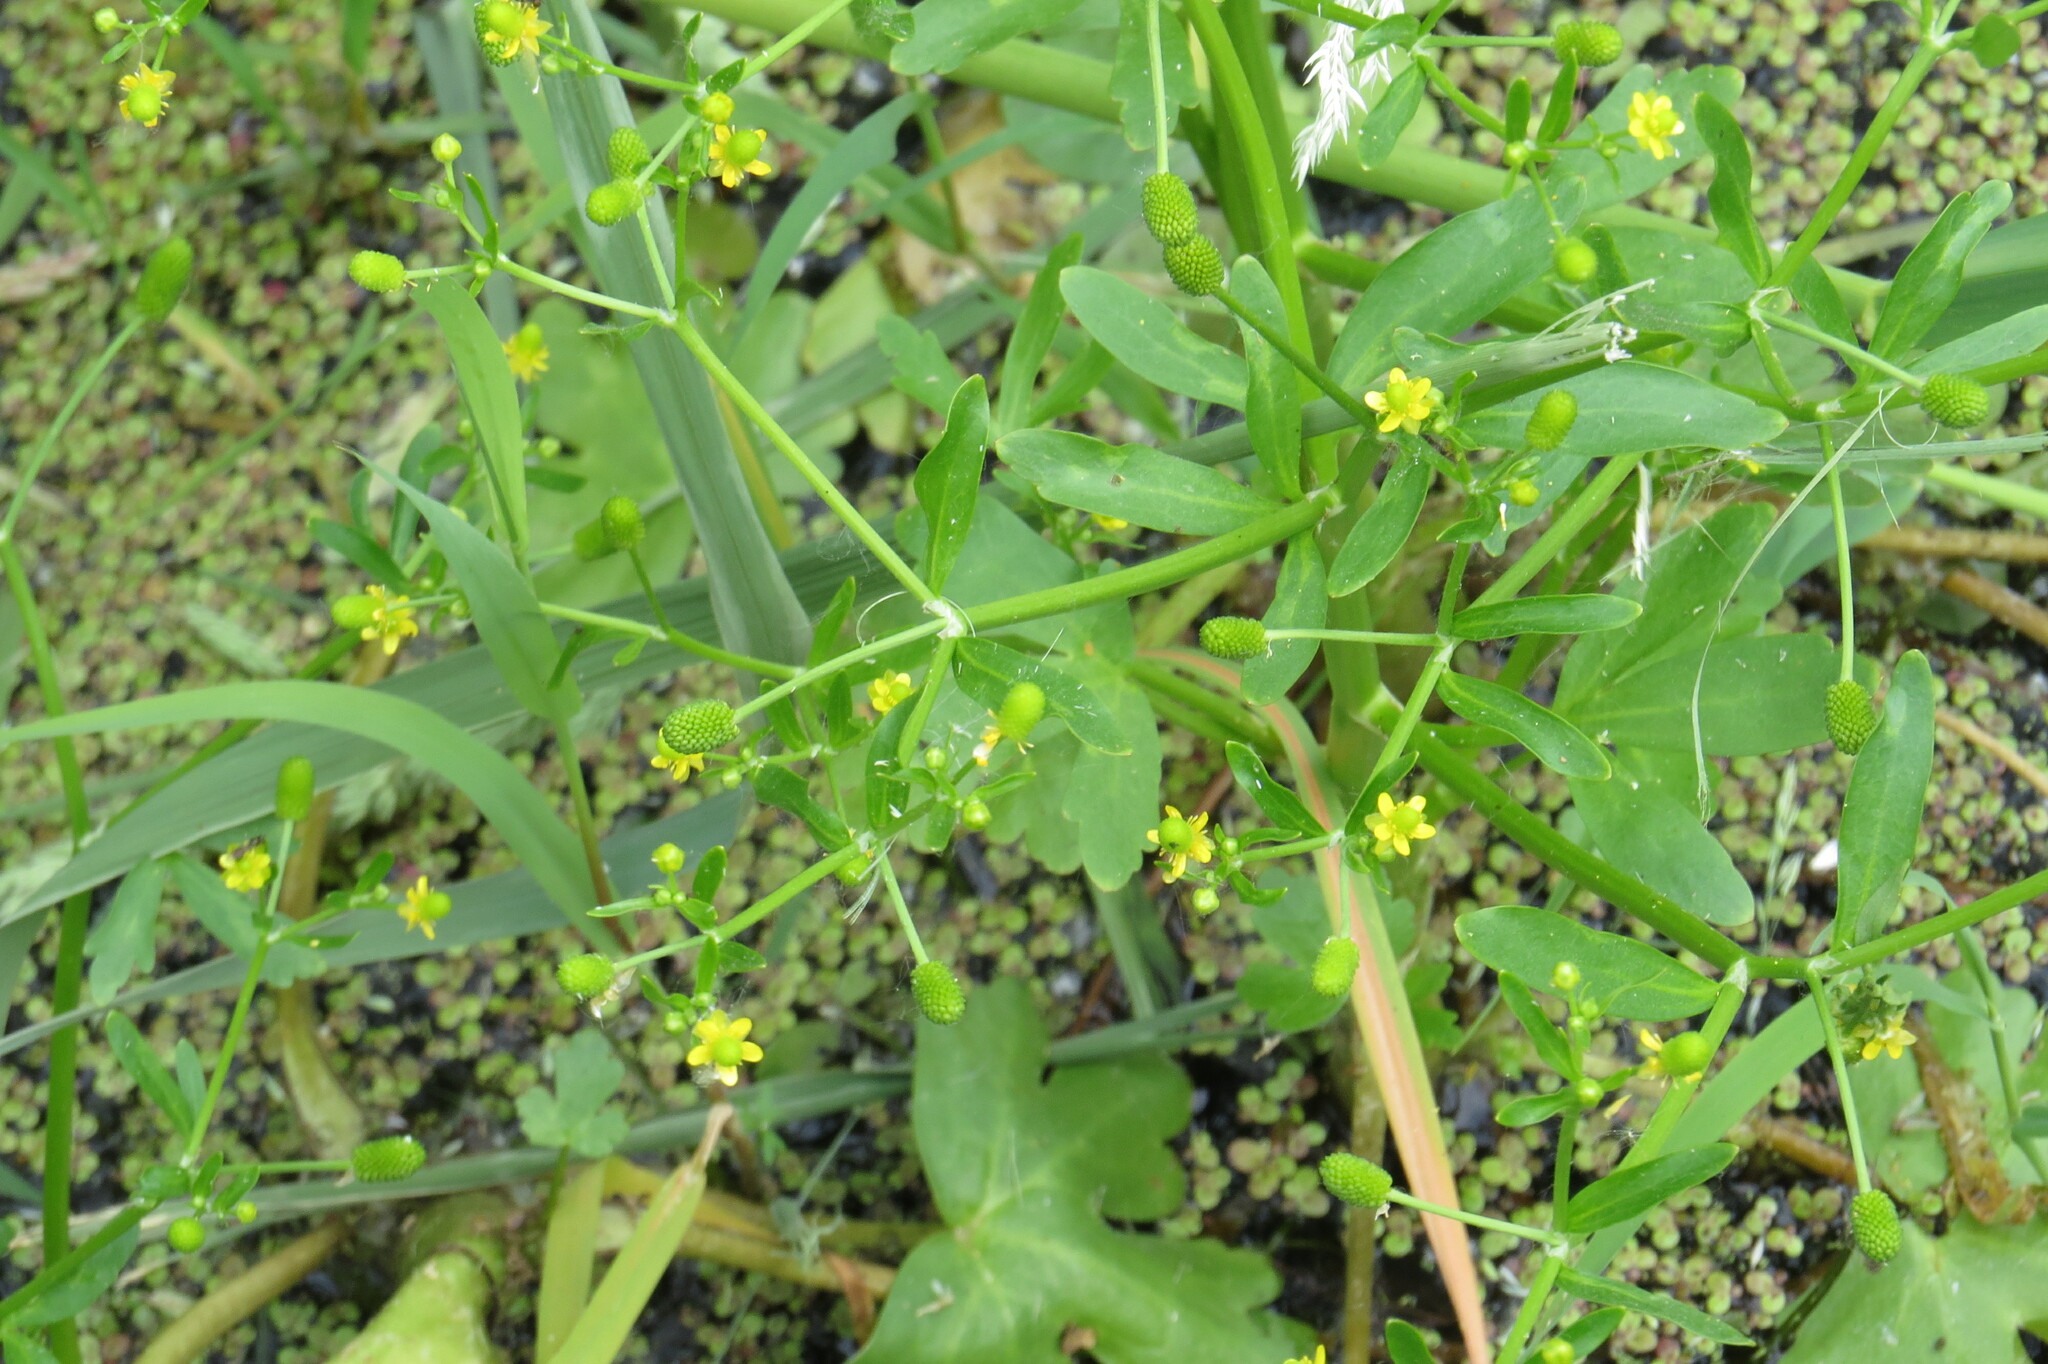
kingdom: Plantae
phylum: Tracheophyta
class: Magnoliopsida
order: Ranunculales
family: Ranunculaceae
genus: Ranunculus
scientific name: Ranunculus sceleratus
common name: Celery-leaved buttercup
